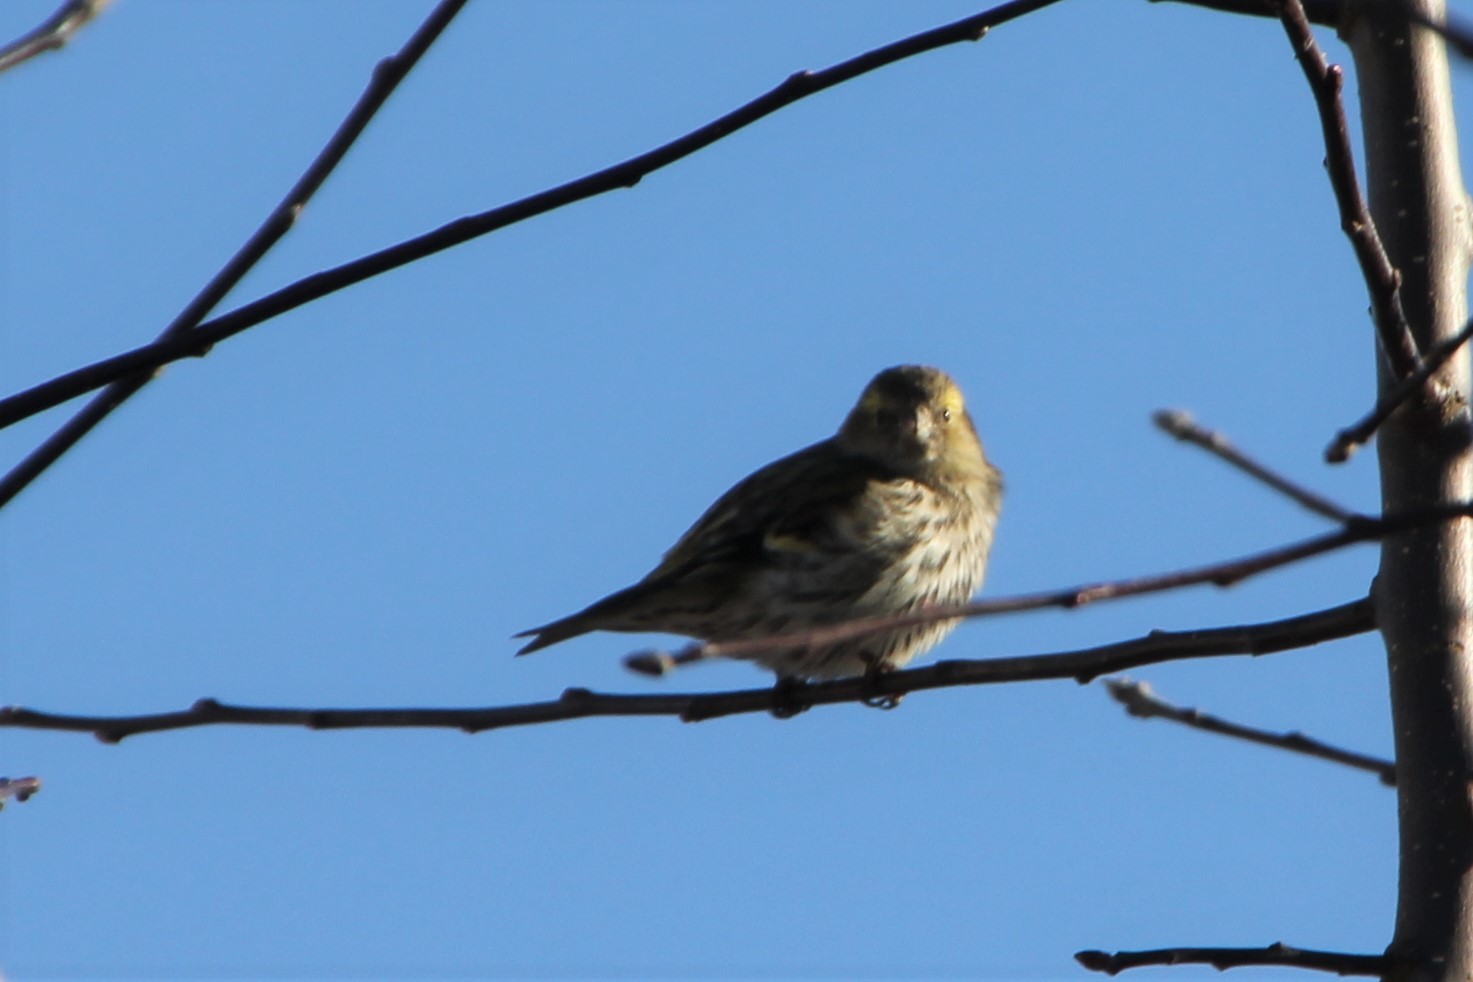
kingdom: Animalia
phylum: Chordata
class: Aves
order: Passeriformes
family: Fringillidae
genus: Spinus
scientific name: Spinus spinus
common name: Eurasian siskin
